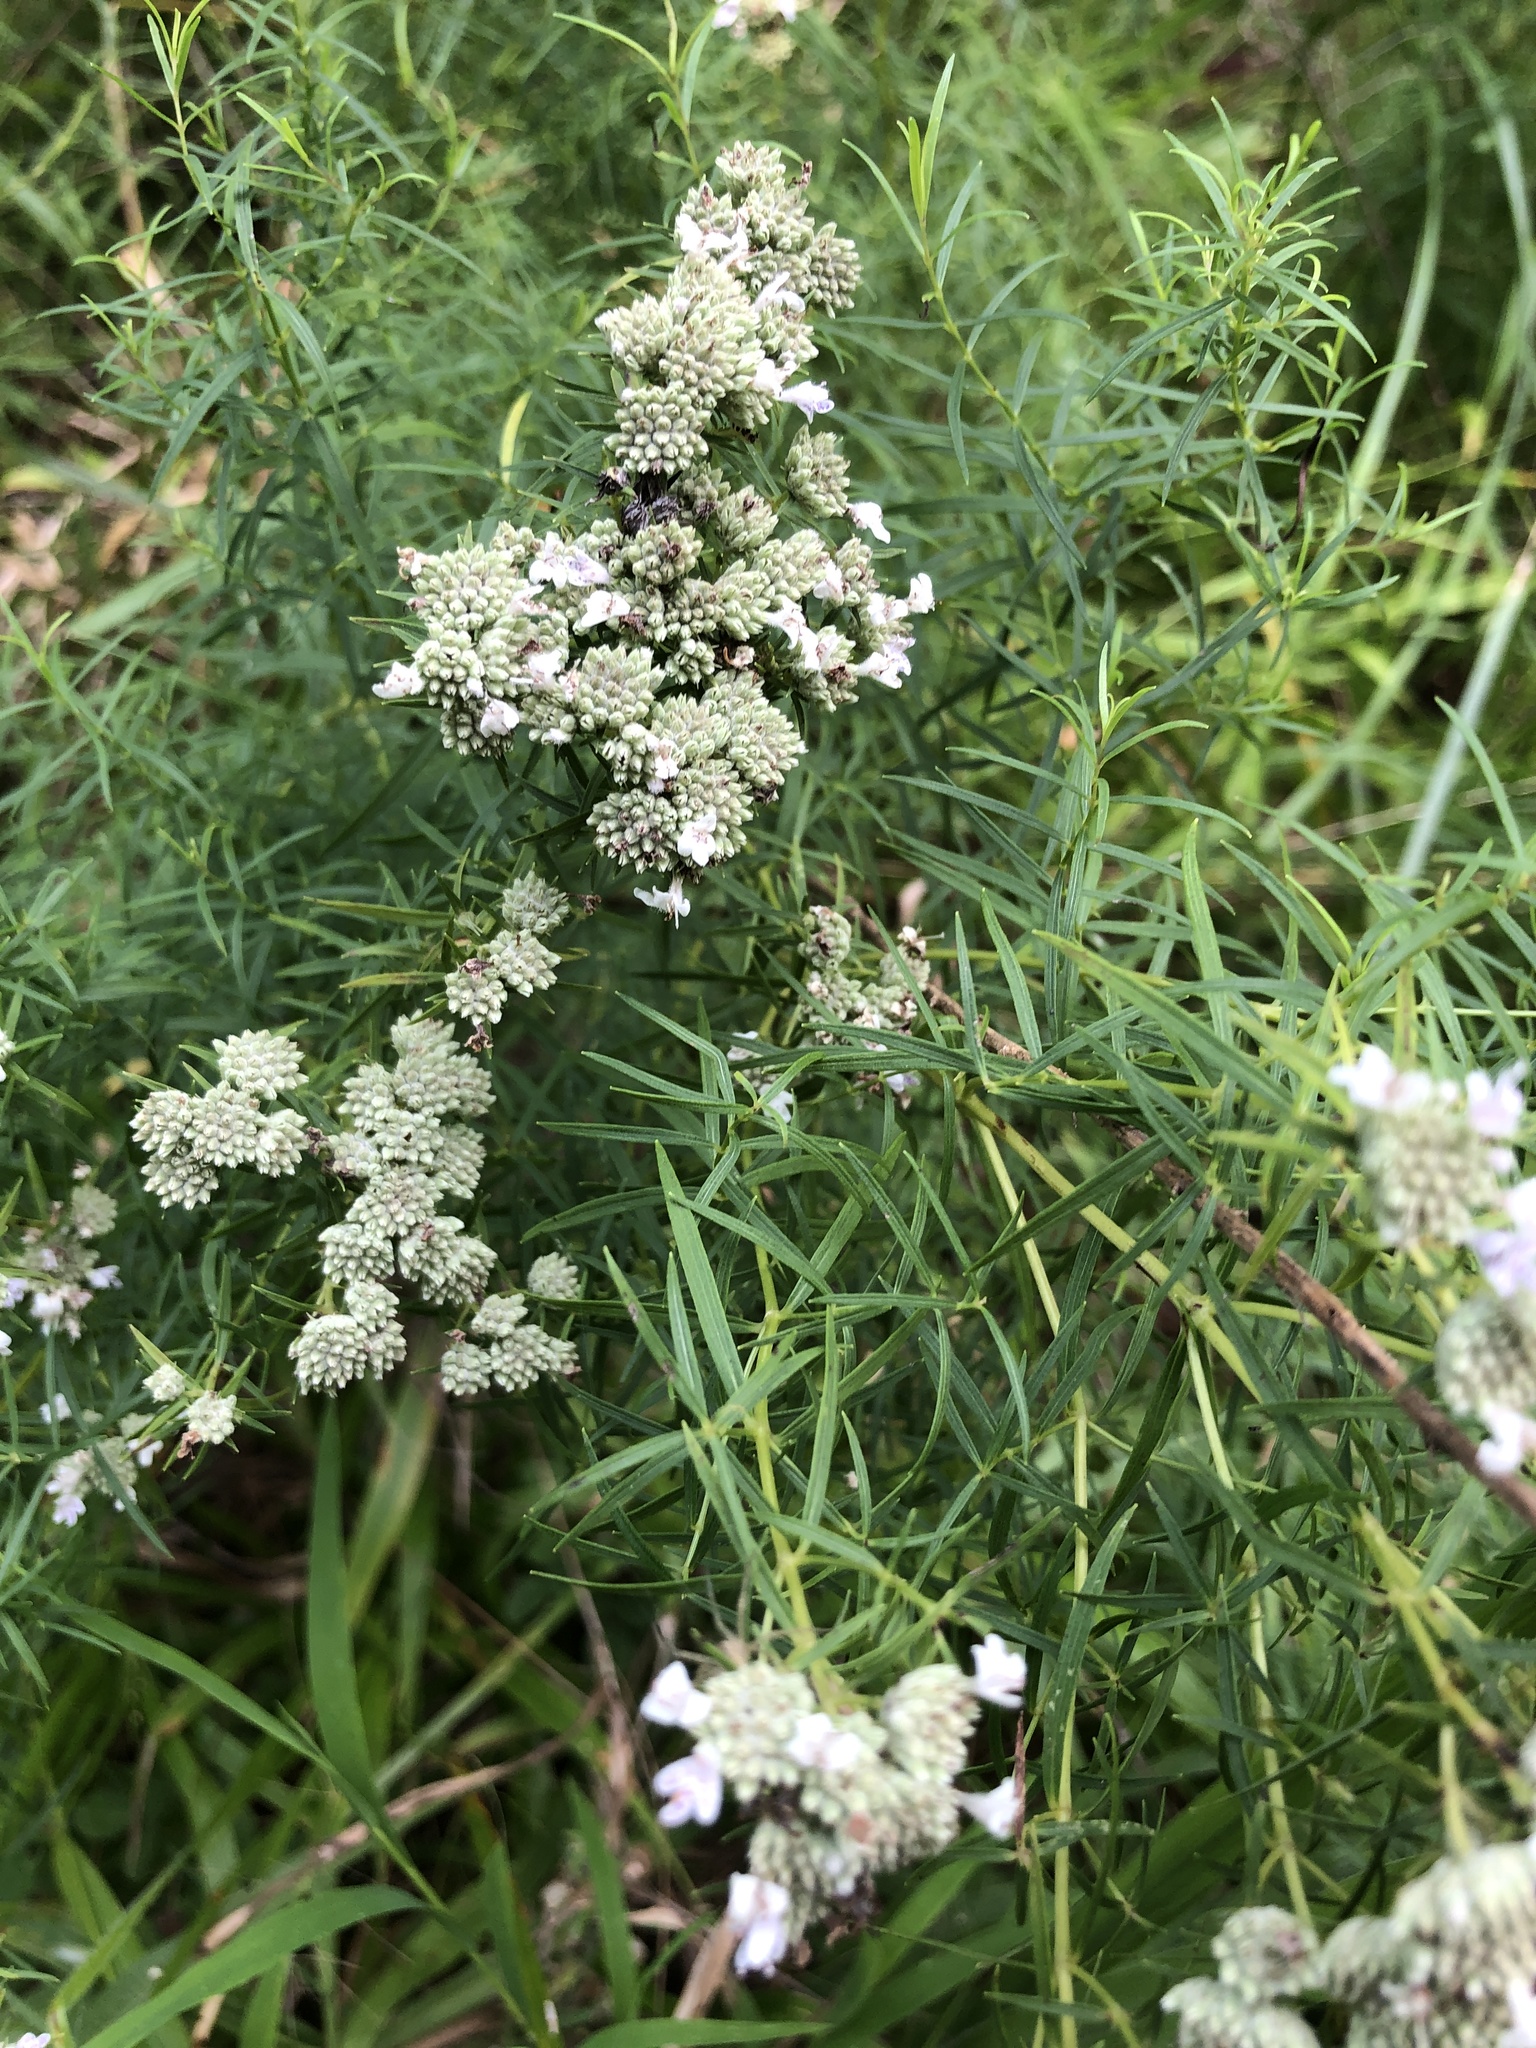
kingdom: Plantae
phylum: Tracheophyta
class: Magnoliopsida
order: Lamiales
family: Lamiaceae
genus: Pycnanthemum
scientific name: Pycnanthemum tenuifolium
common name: Narrow-leaf mountain-mint
